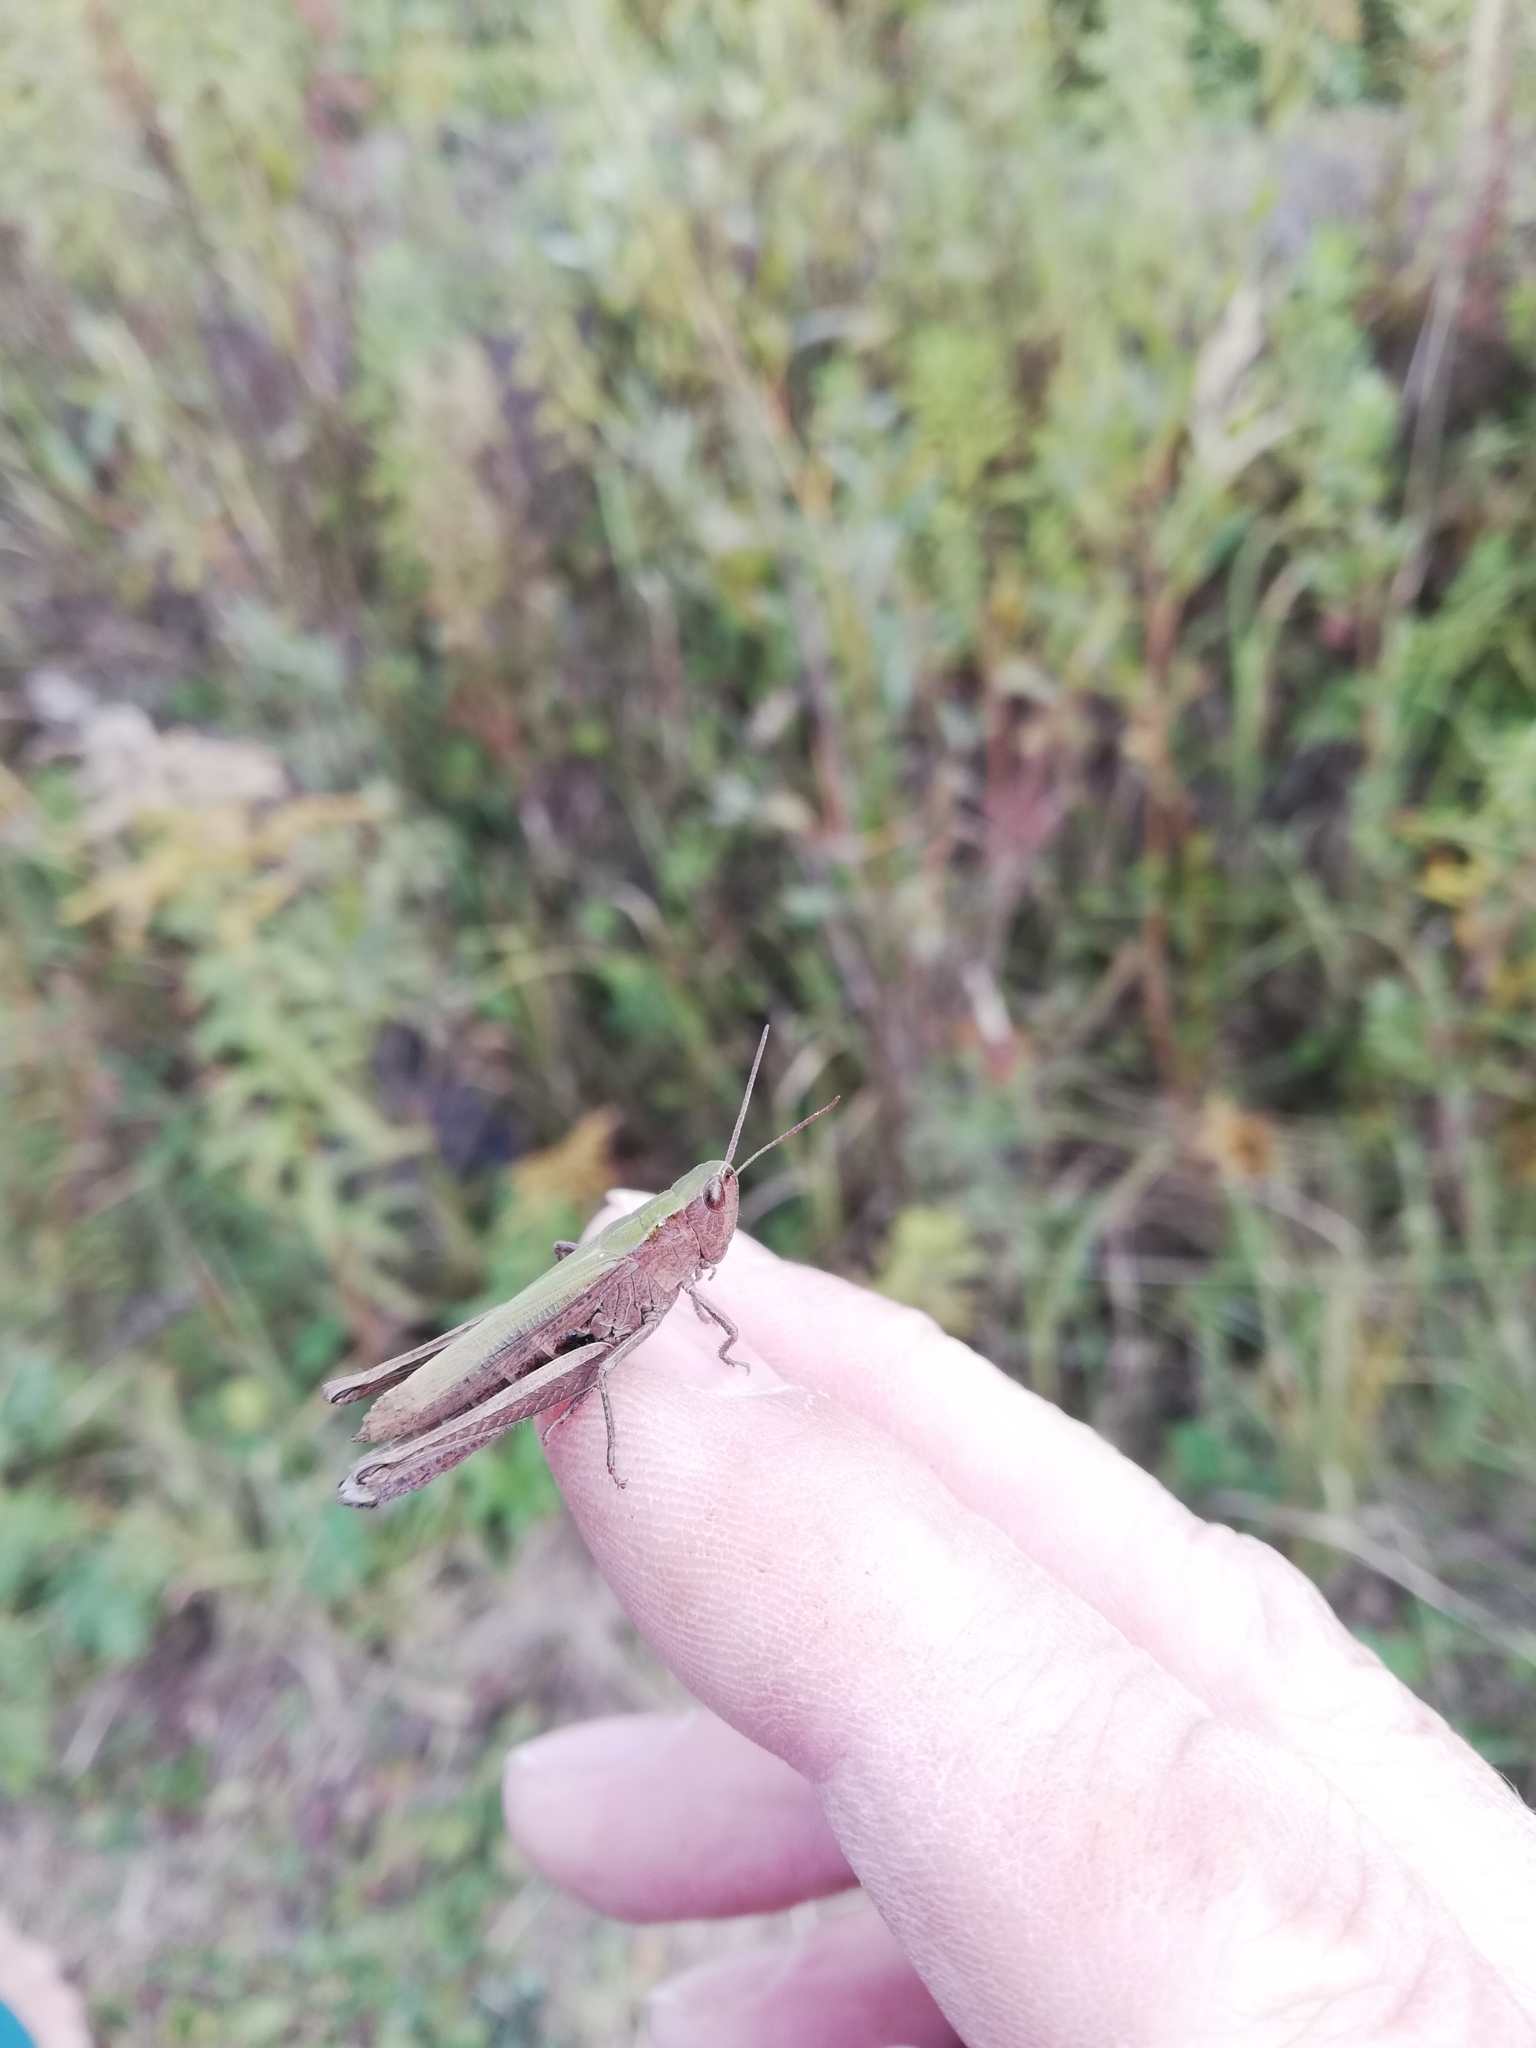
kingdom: Animalia
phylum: Arthropoda
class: Insecta
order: Orthoptera
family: Acrididae
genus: Chorthippus
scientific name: Chorthippus dorsatus
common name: Steppe grasshopper
